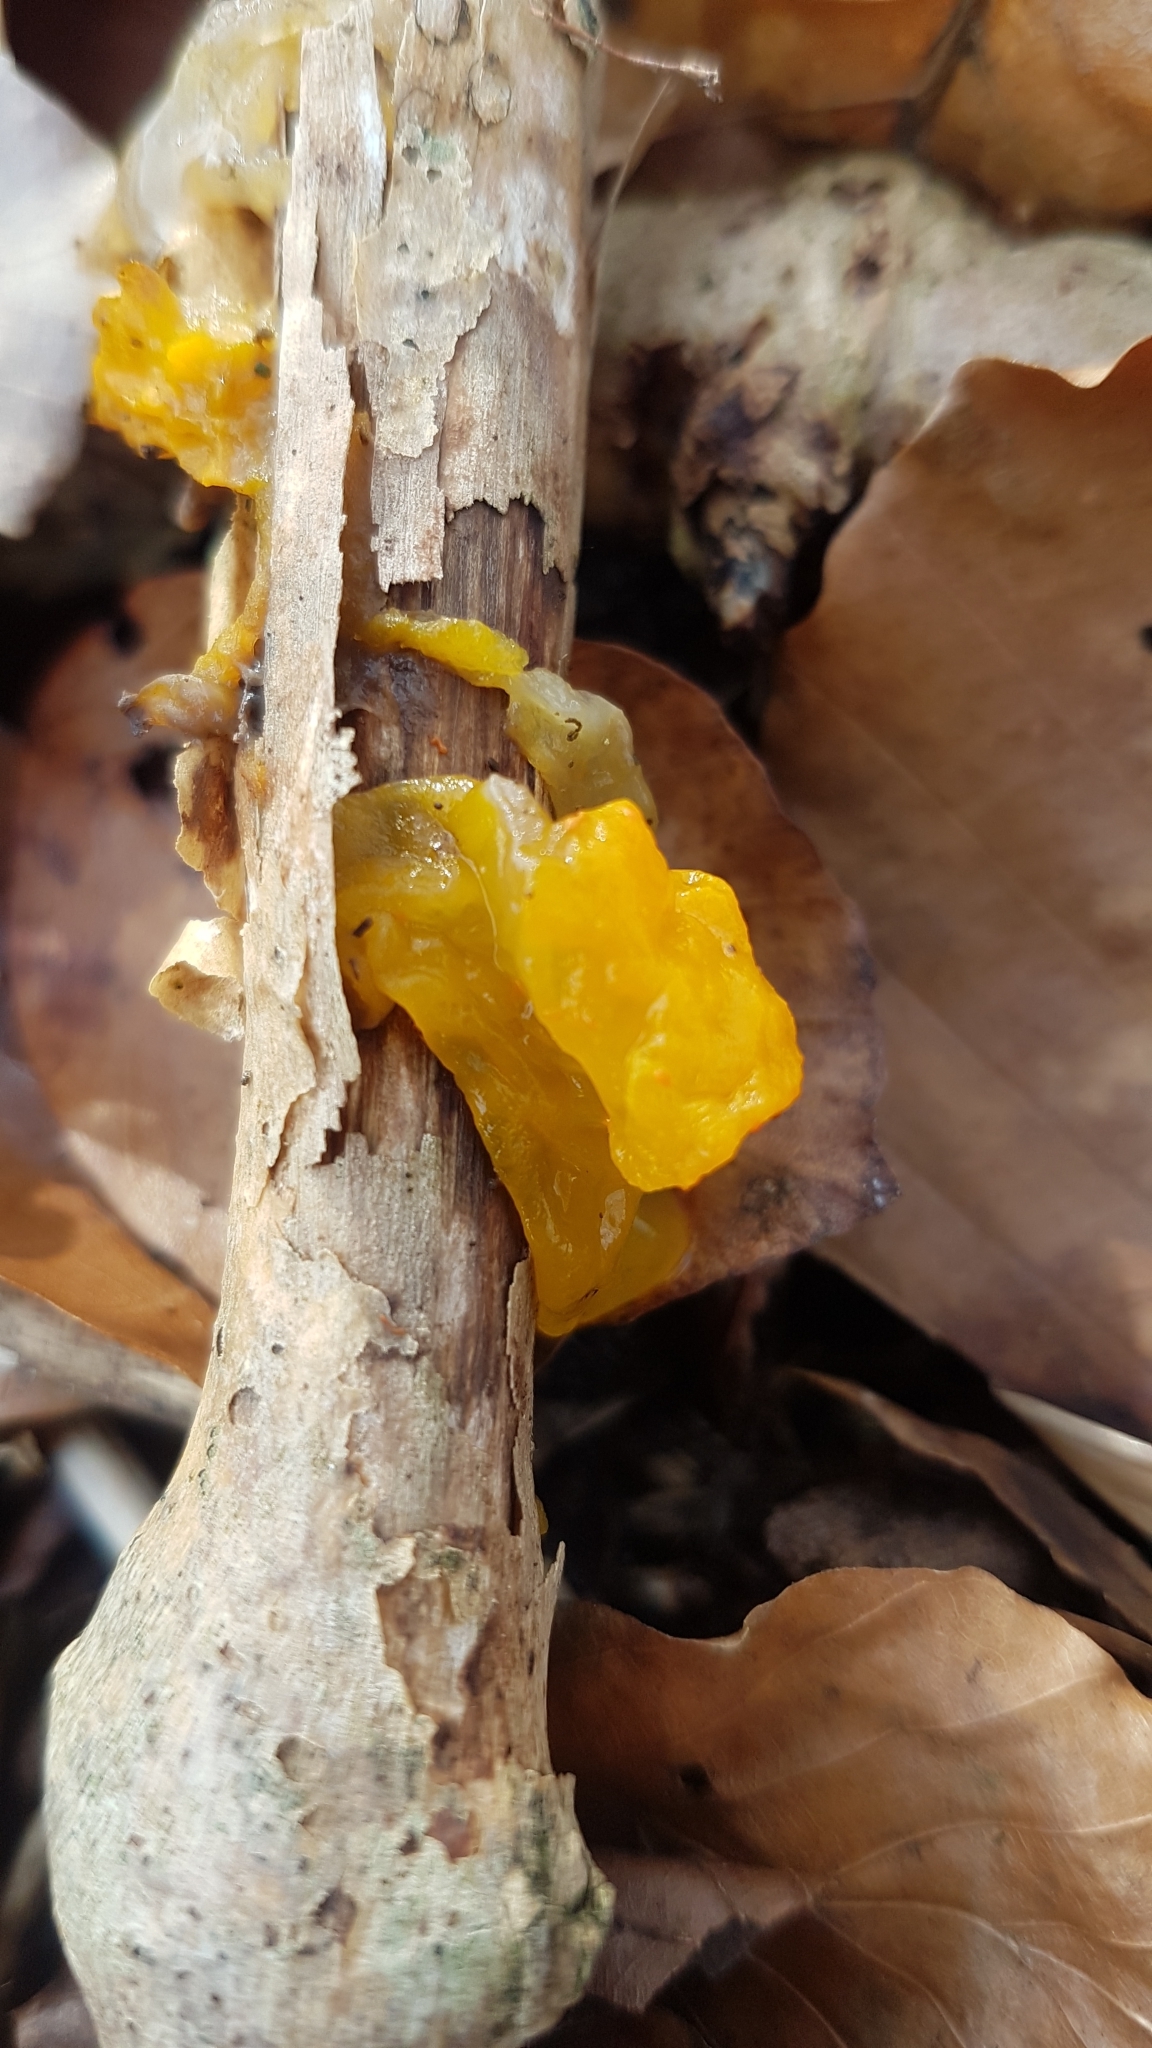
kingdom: Fungi
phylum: Basidiomycota
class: Tremellomycetes
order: Tremellales
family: Tremellaceae
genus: Tremella
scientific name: Tremella mesenterica
